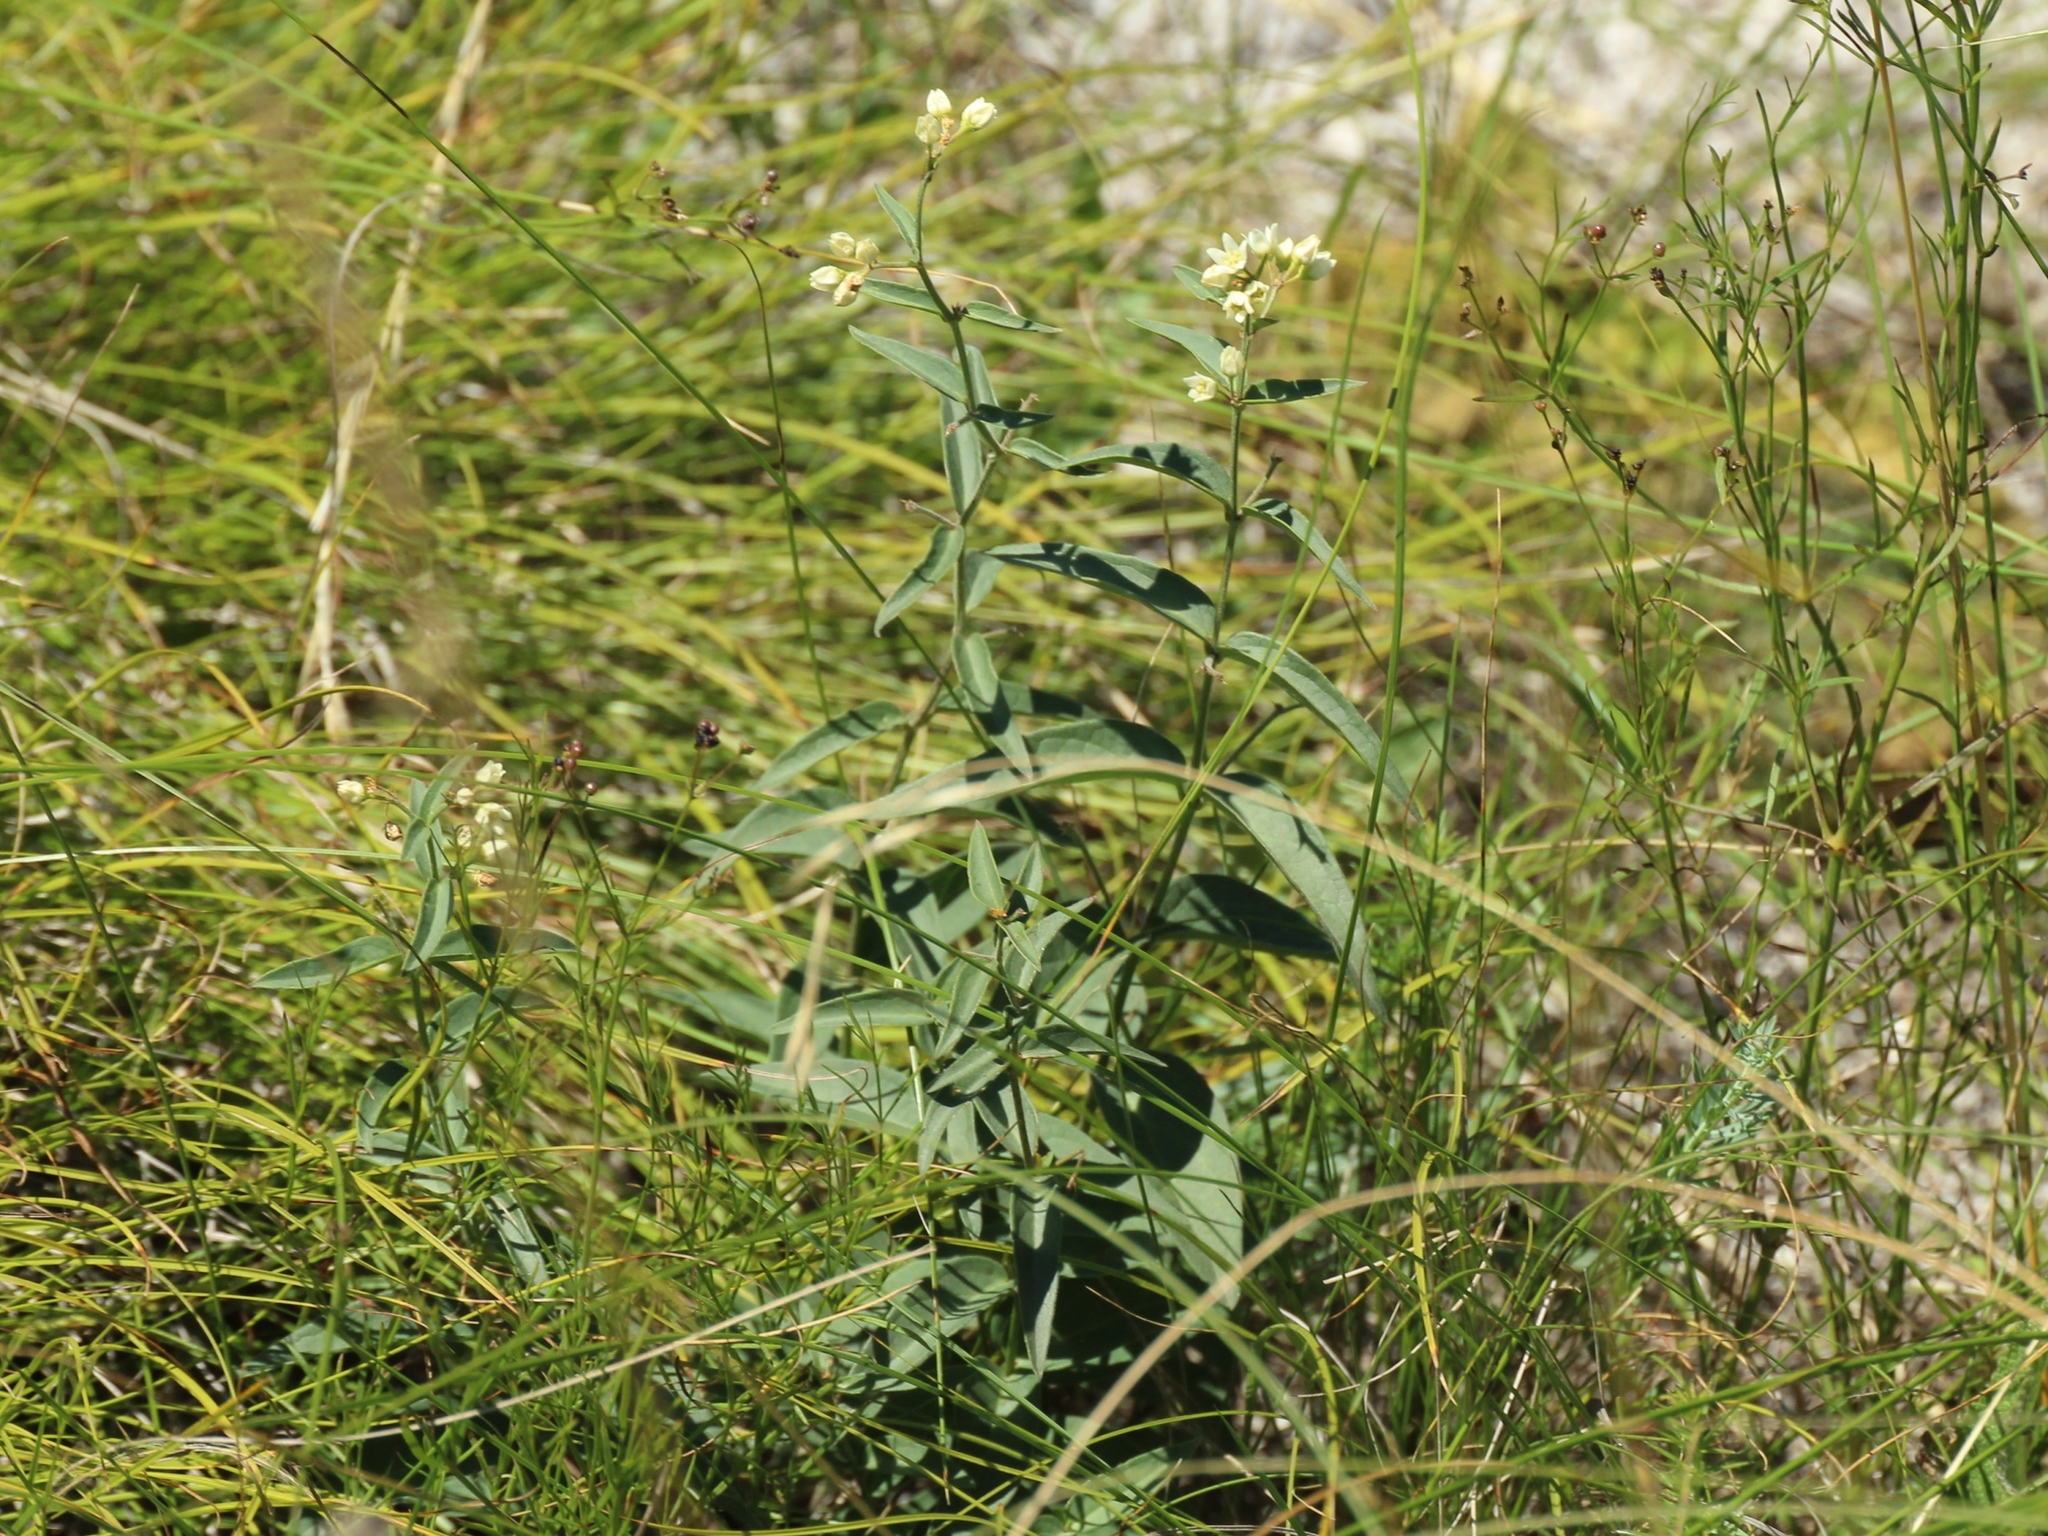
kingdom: Plantae
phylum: Tracheophyta
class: Magnoliopsida
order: Gentianales
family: Apocynaceae
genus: Vincetoxicum
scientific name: Vincetoxicum hirundinaria
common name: White swallowwort
